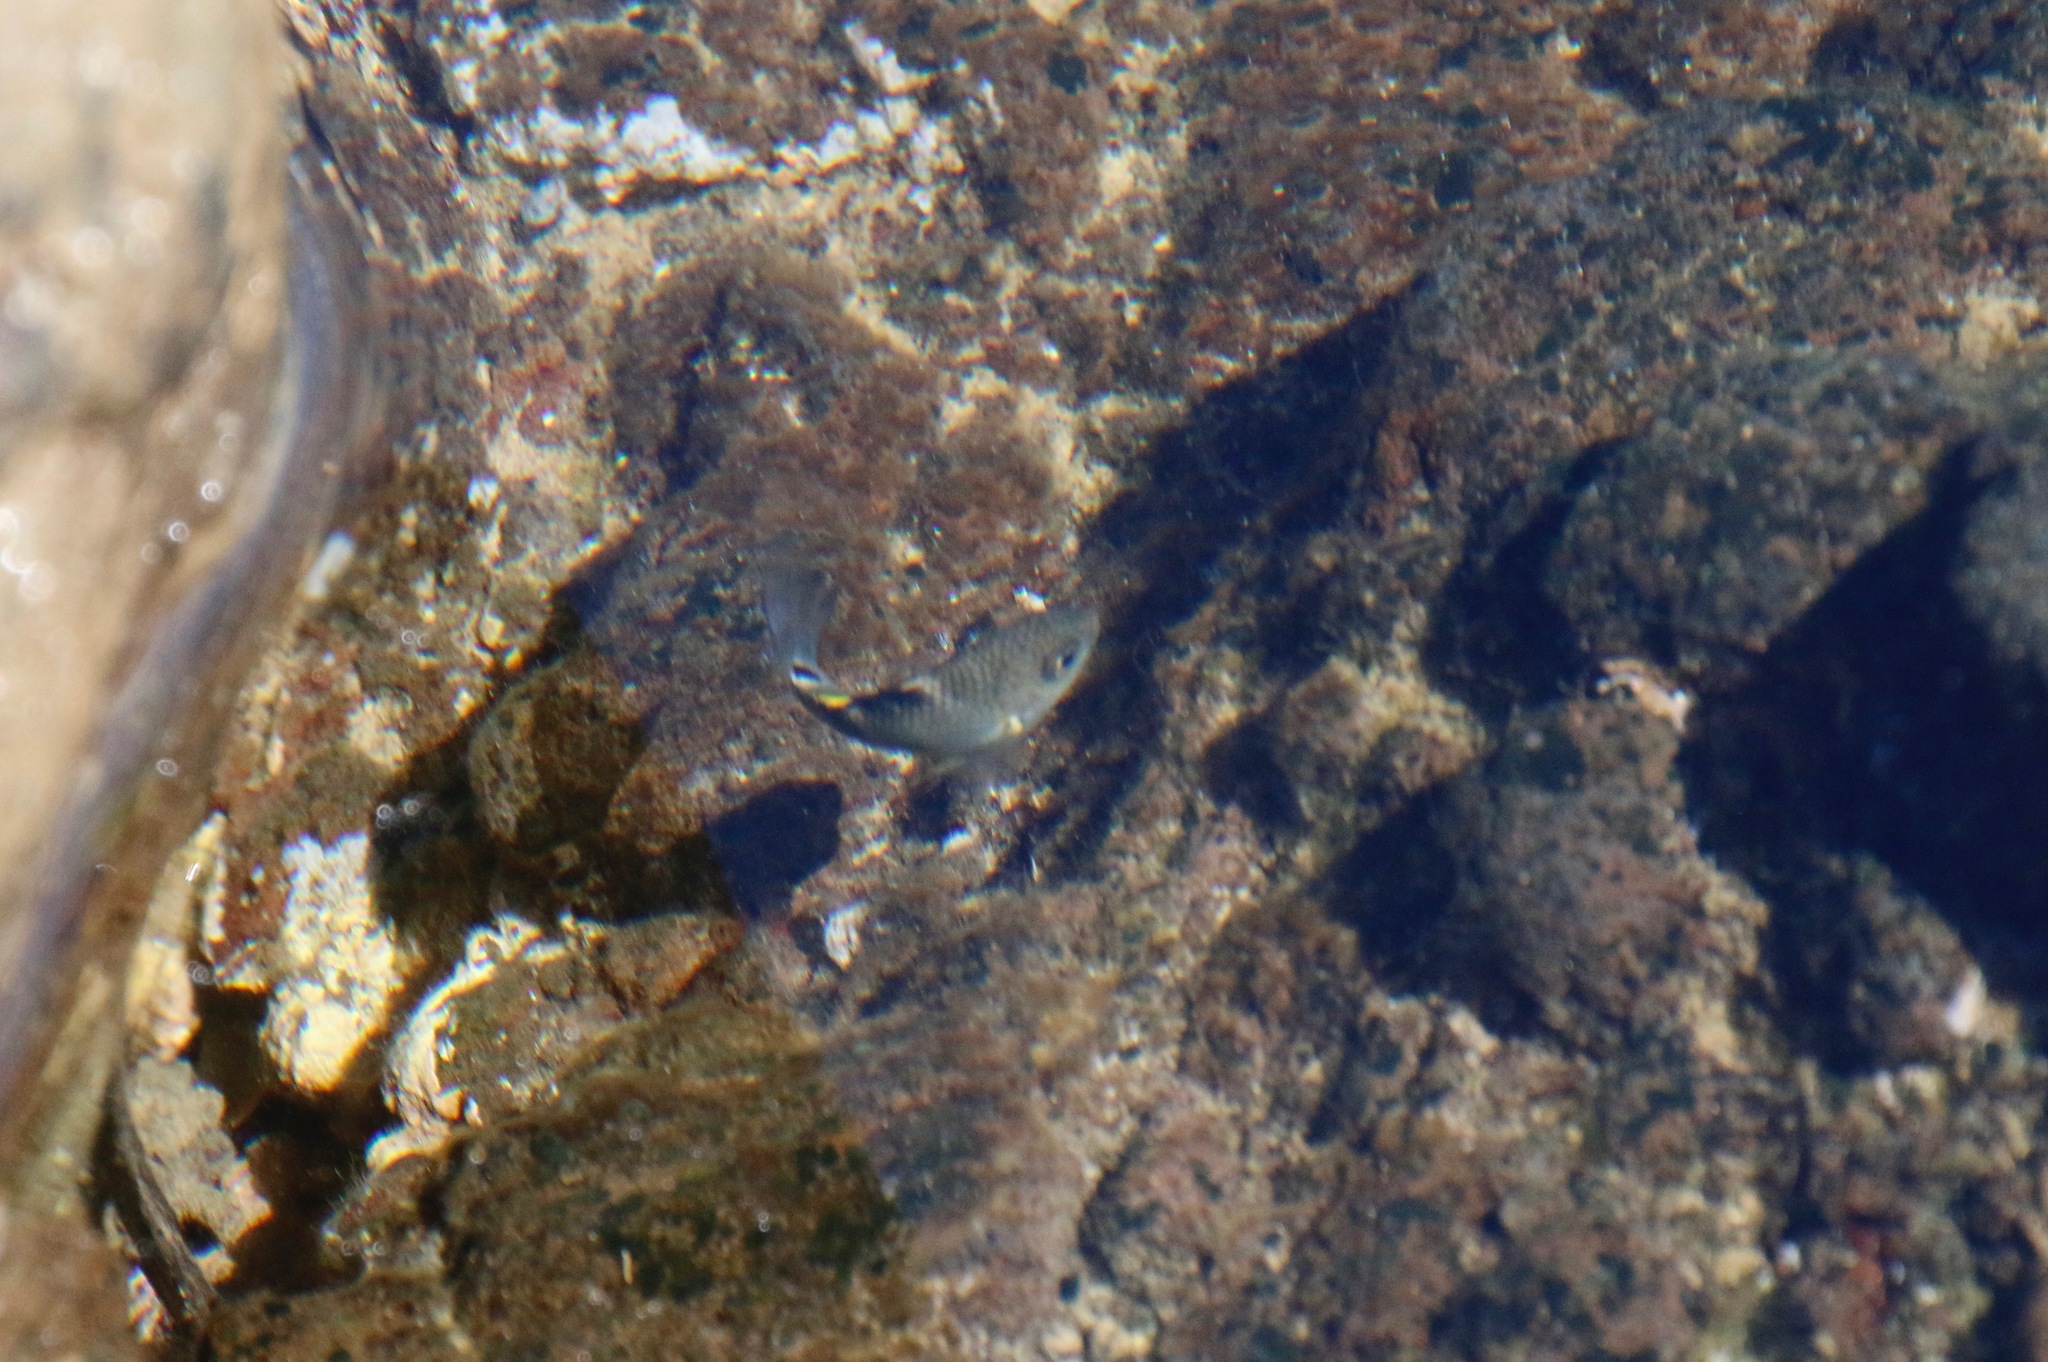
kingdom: Animalia
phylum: Chordata
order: Perciformes
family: Pomacentridae
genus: Abudefduf
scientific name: Abudefduf sordidus
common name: Blackspot sergeant
